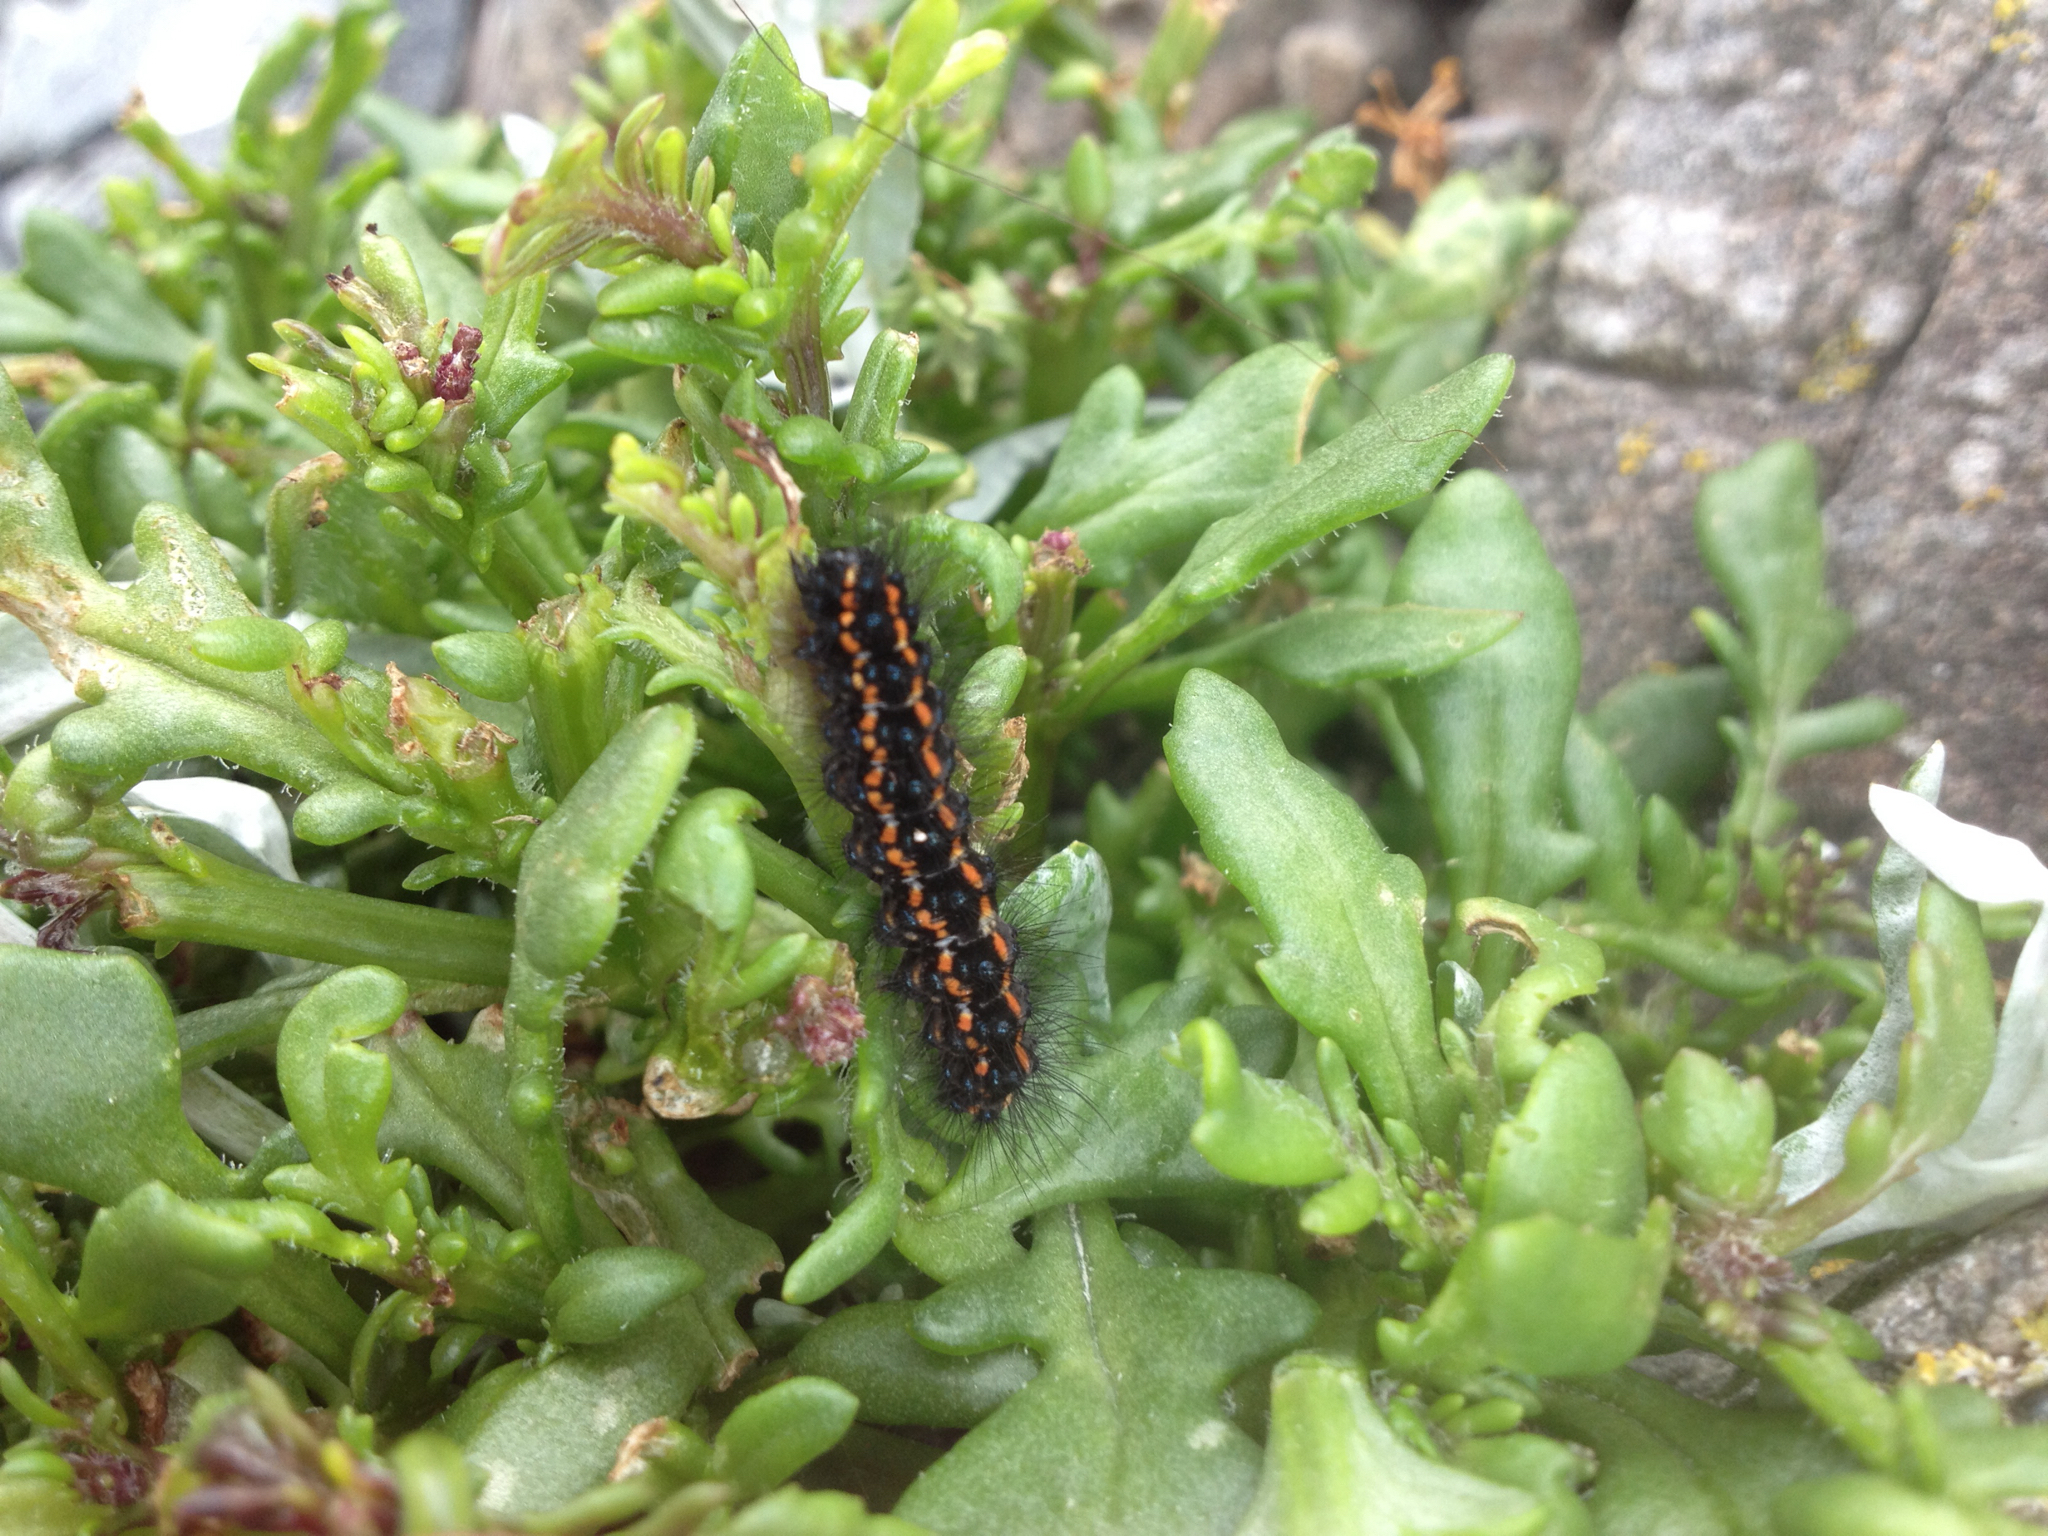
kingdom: Animalia
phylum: Arthropoda
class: Insecta
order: Lepidoptera
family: Erebidae
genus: Nyctemera
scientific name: Nyctemera annulatum
